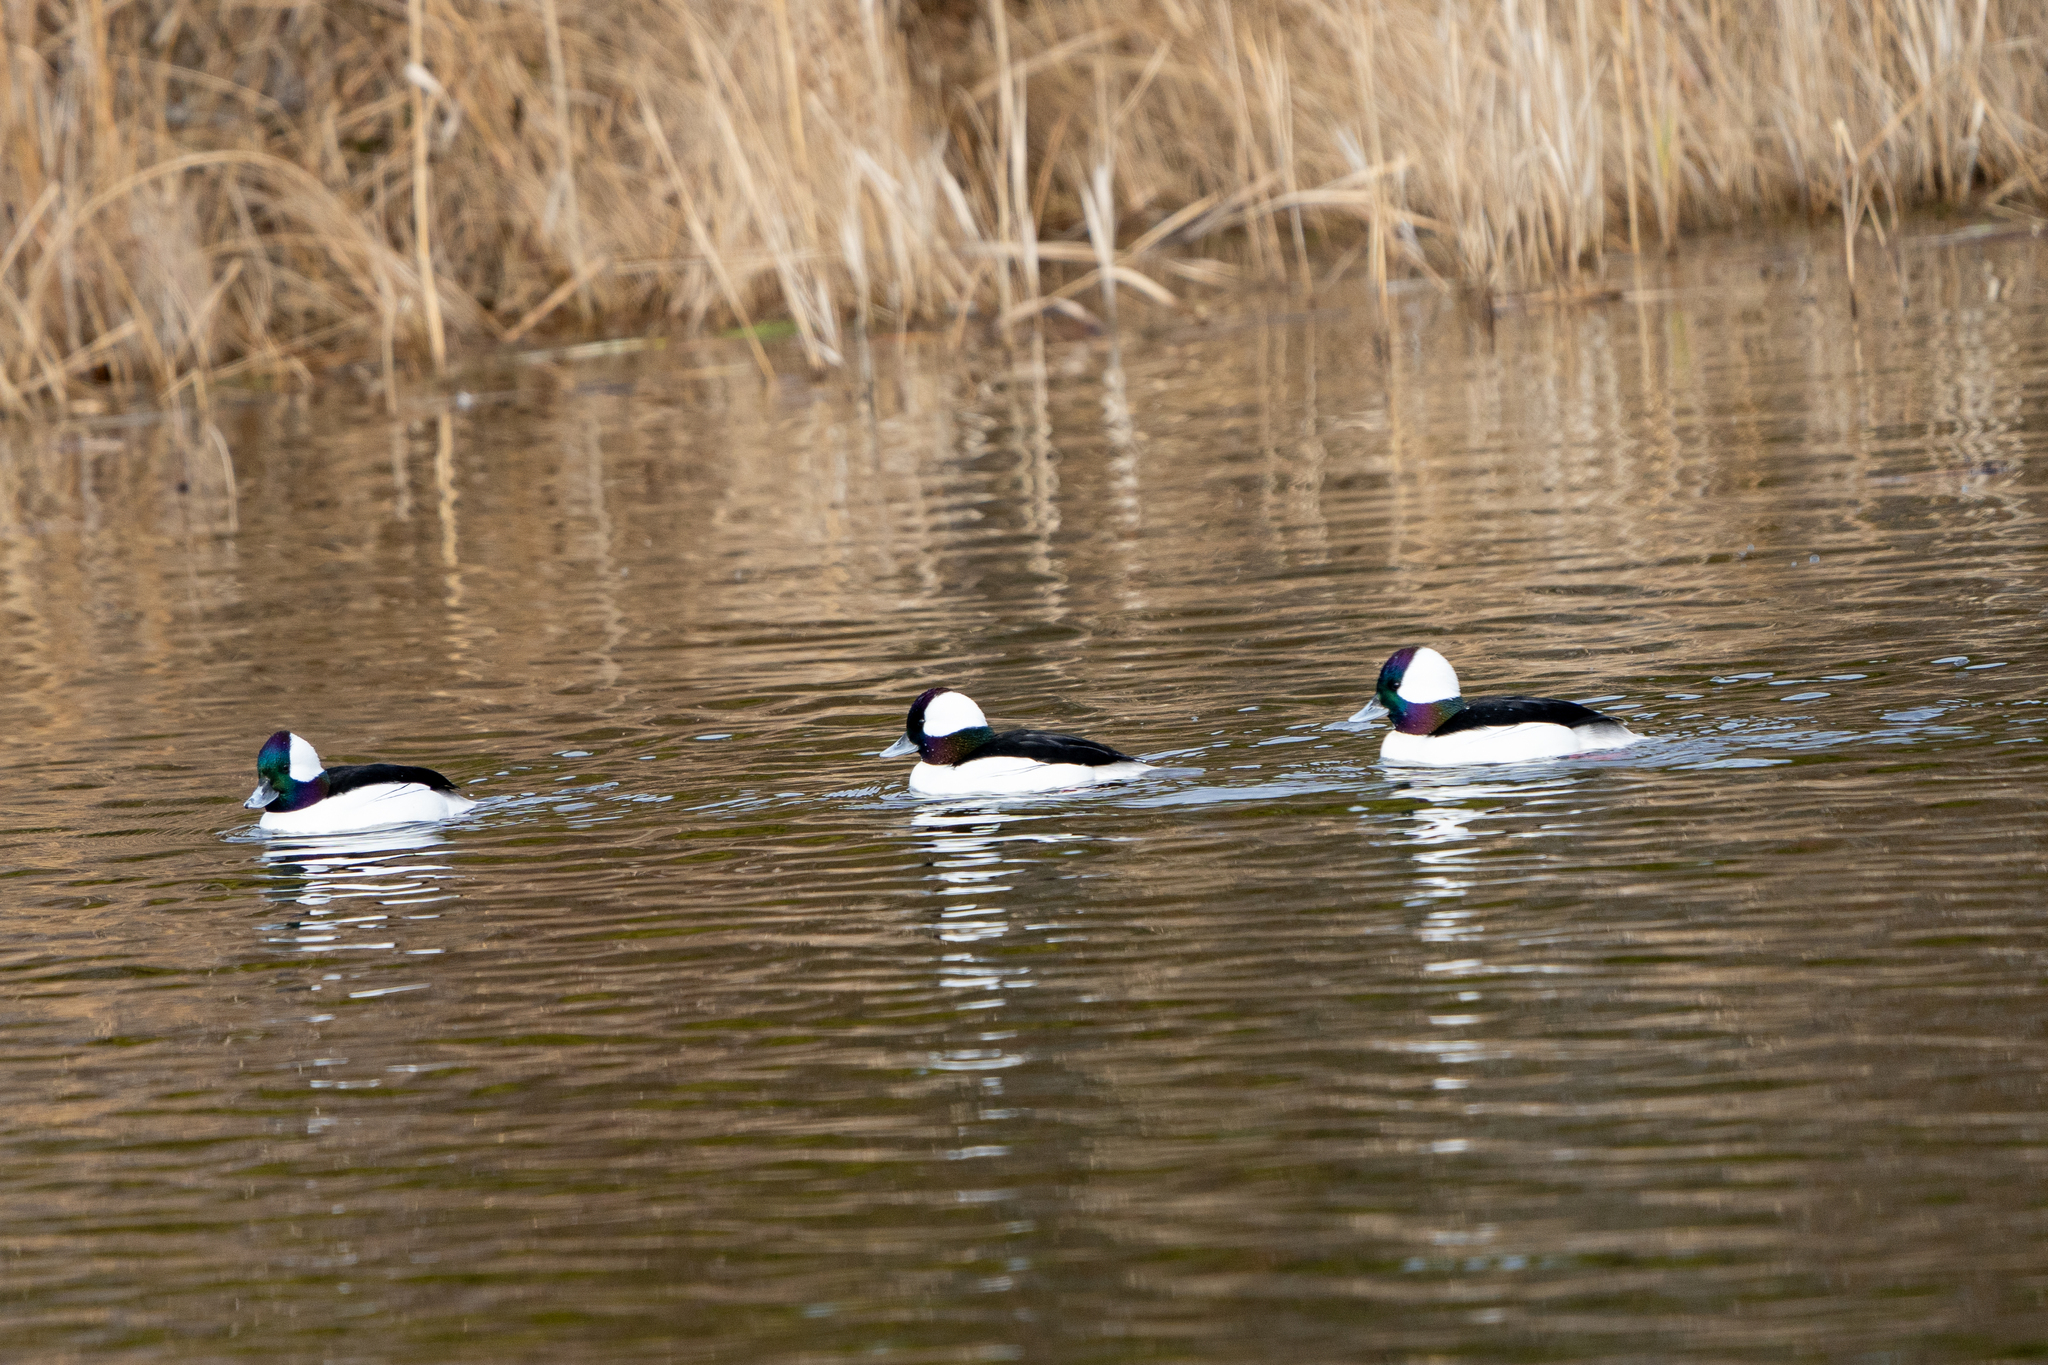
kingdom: Animalia
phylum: Chordata
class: Aves
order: Anseriformes
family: Anatidae
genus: Bucephala
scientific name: Bucephala albeola
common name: Bufflehead
